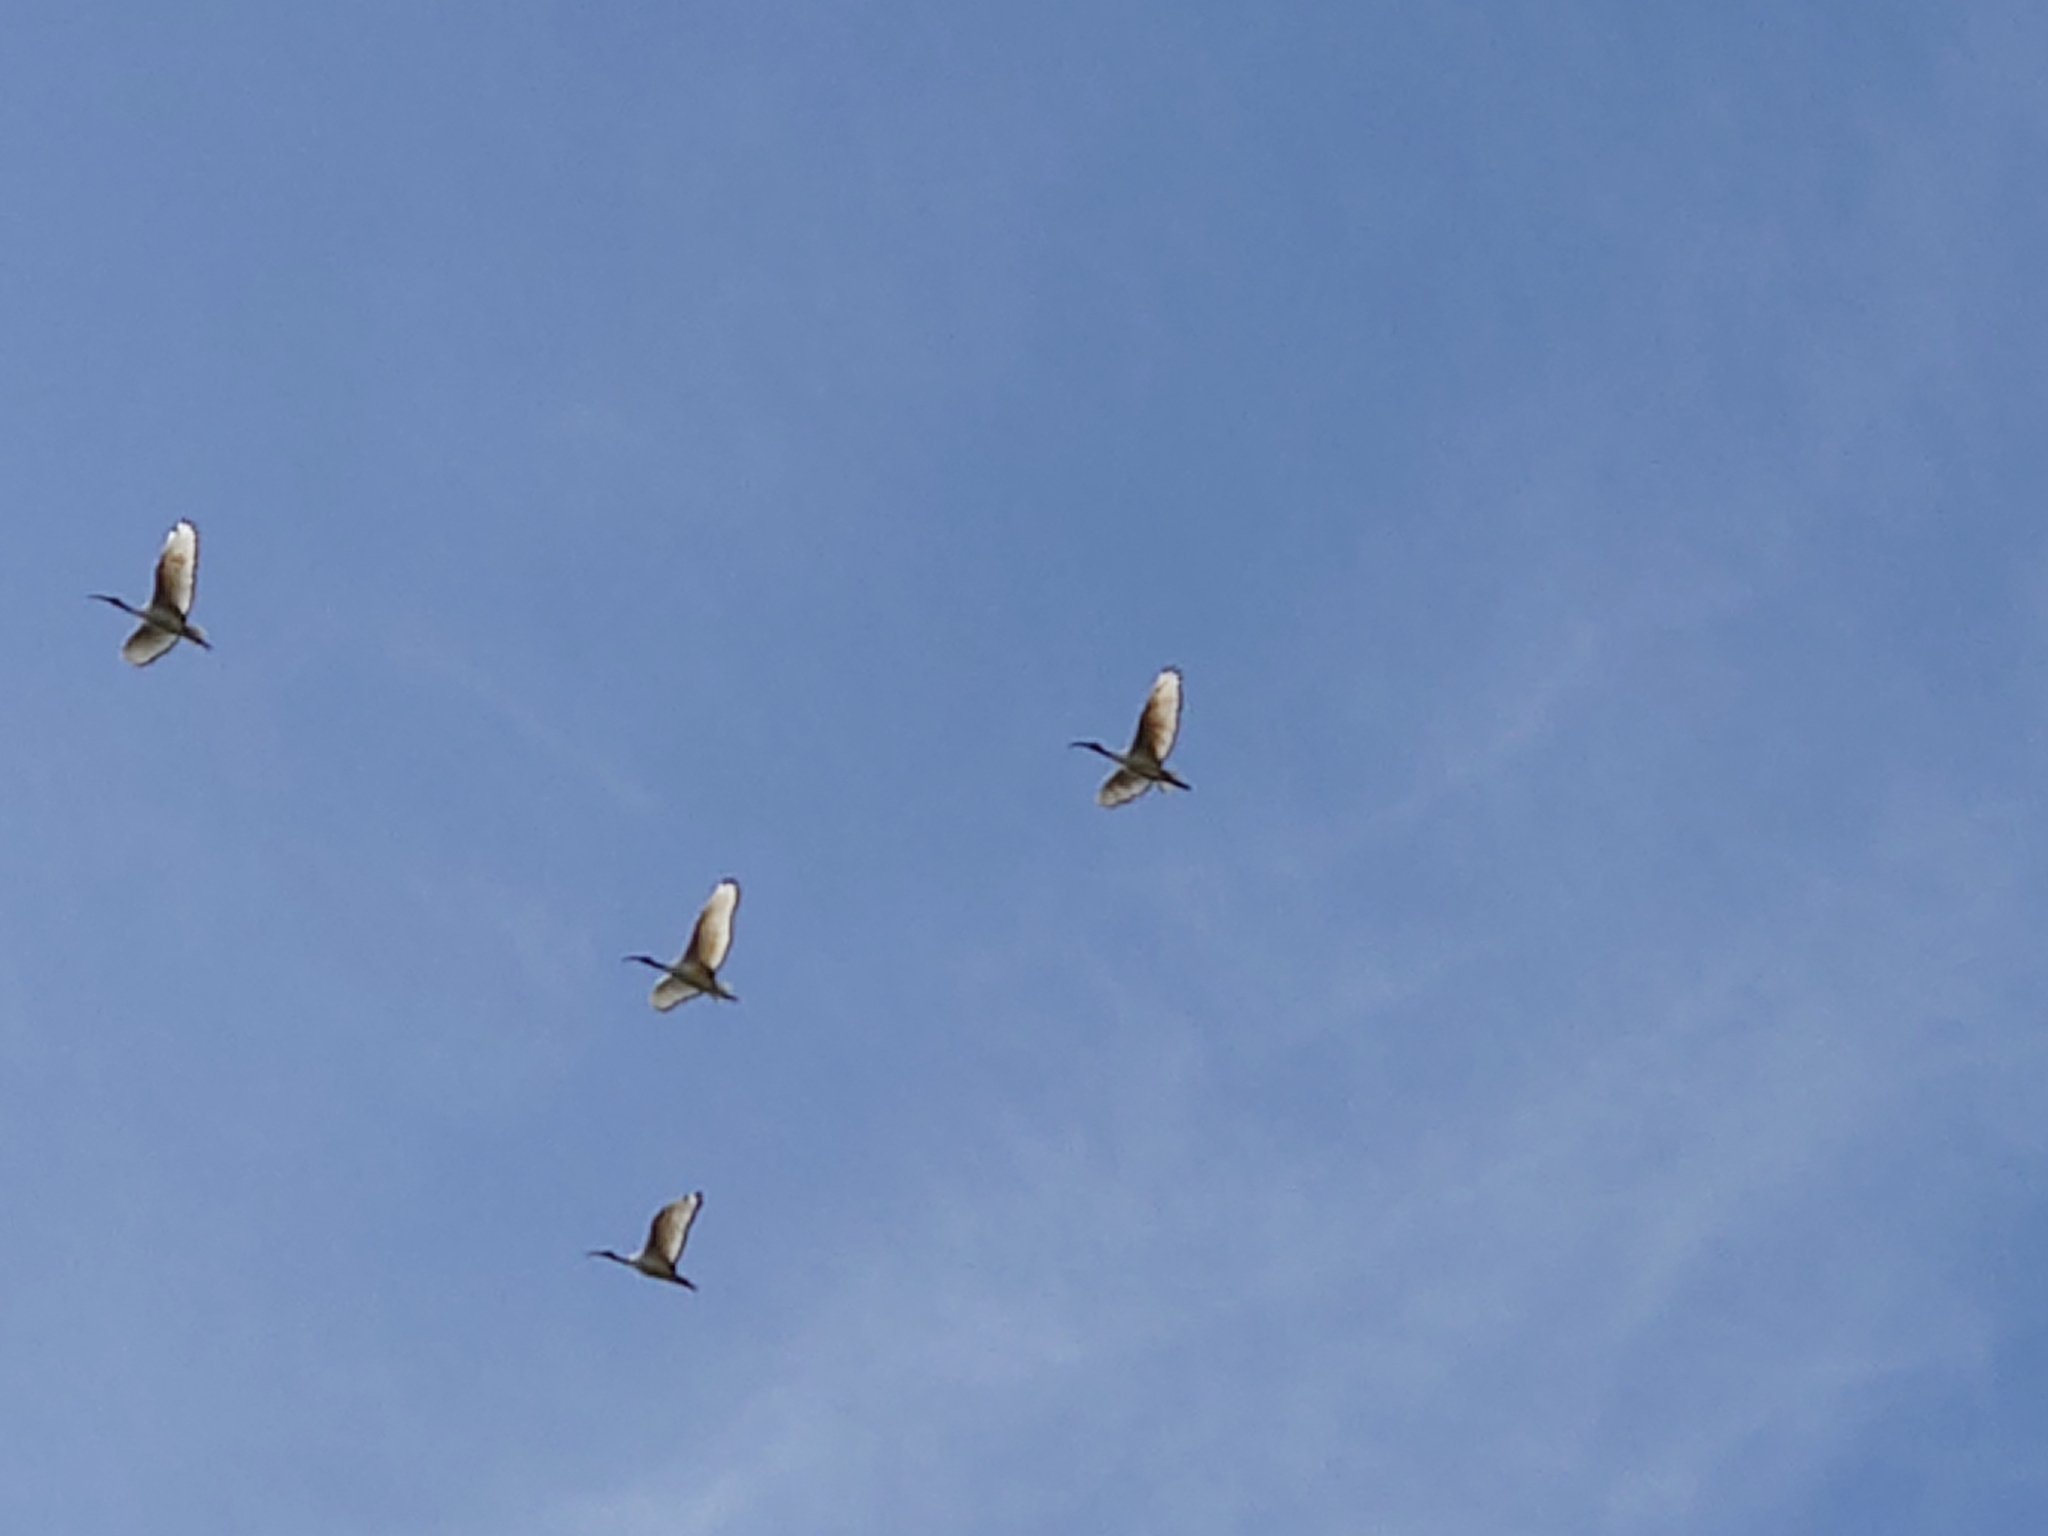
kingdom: Animalia
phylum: Chordata
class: Aves
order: Pelecaniformes
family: Threskiornithidae
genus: Threskiornis
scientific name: Threskiornis aethiopicus
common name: Sacred ibis
